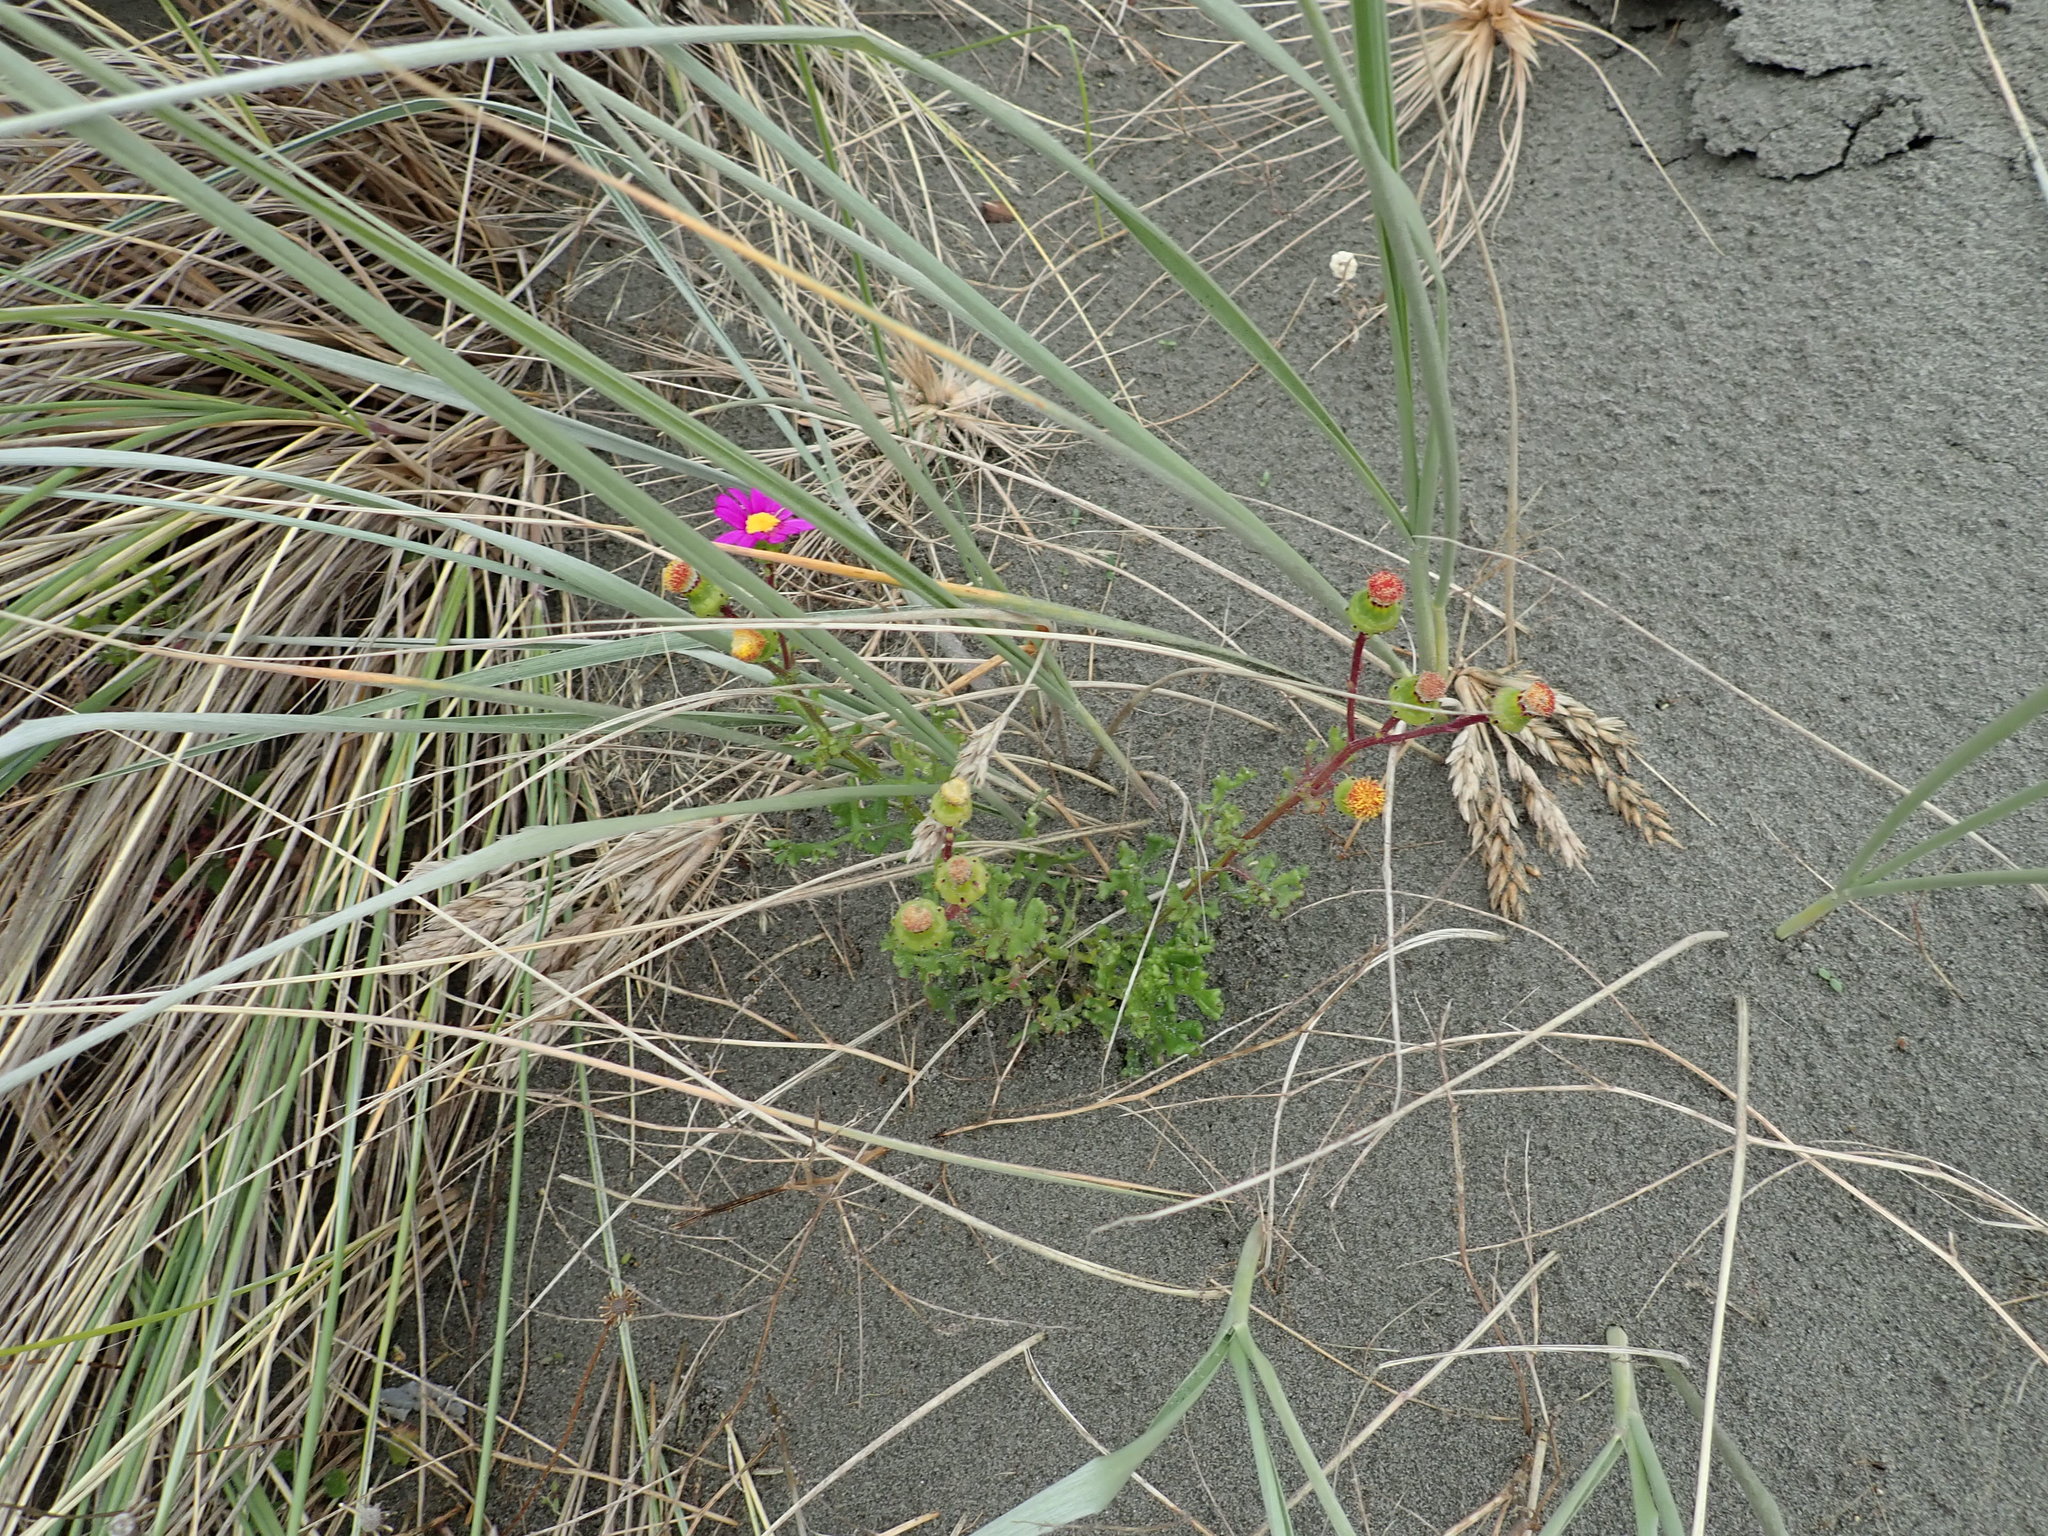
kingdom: Plantae
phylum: Tracheophyta
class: Magnoliopsida
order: Asterales
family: Asteraceae
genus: Senecio
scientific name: Senecio elegans
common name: Purple groundsel
